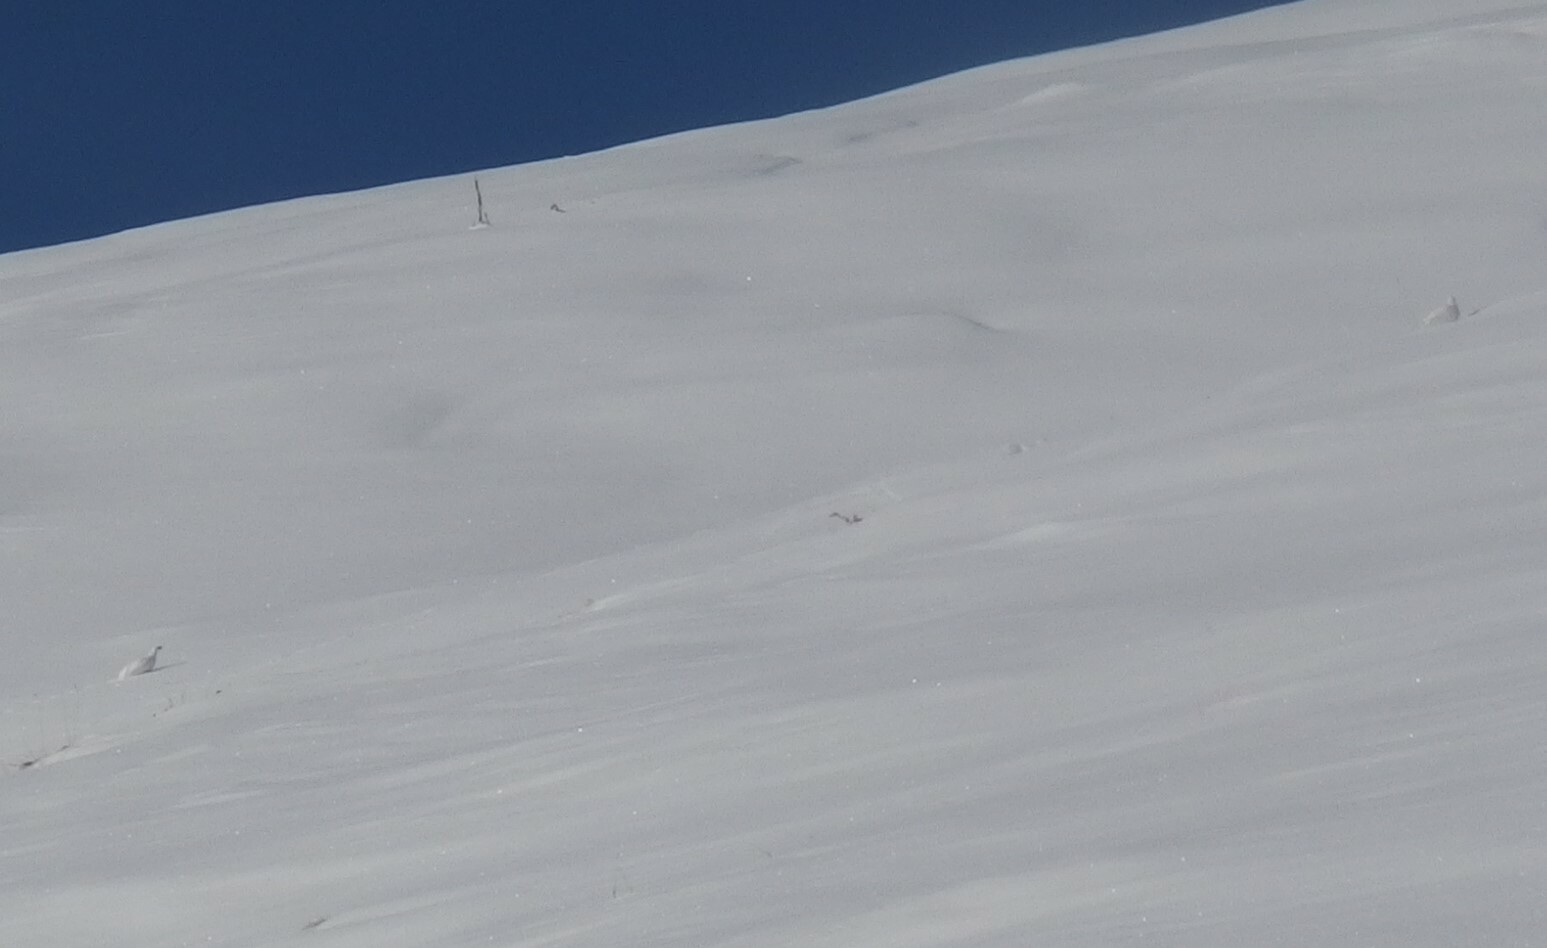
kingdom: Animalia
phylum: Chordata
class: Aves
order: Galliformes
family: Phasianidae
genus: Lagopus
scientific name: Lagopus muta
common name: Rock ptarmigan
